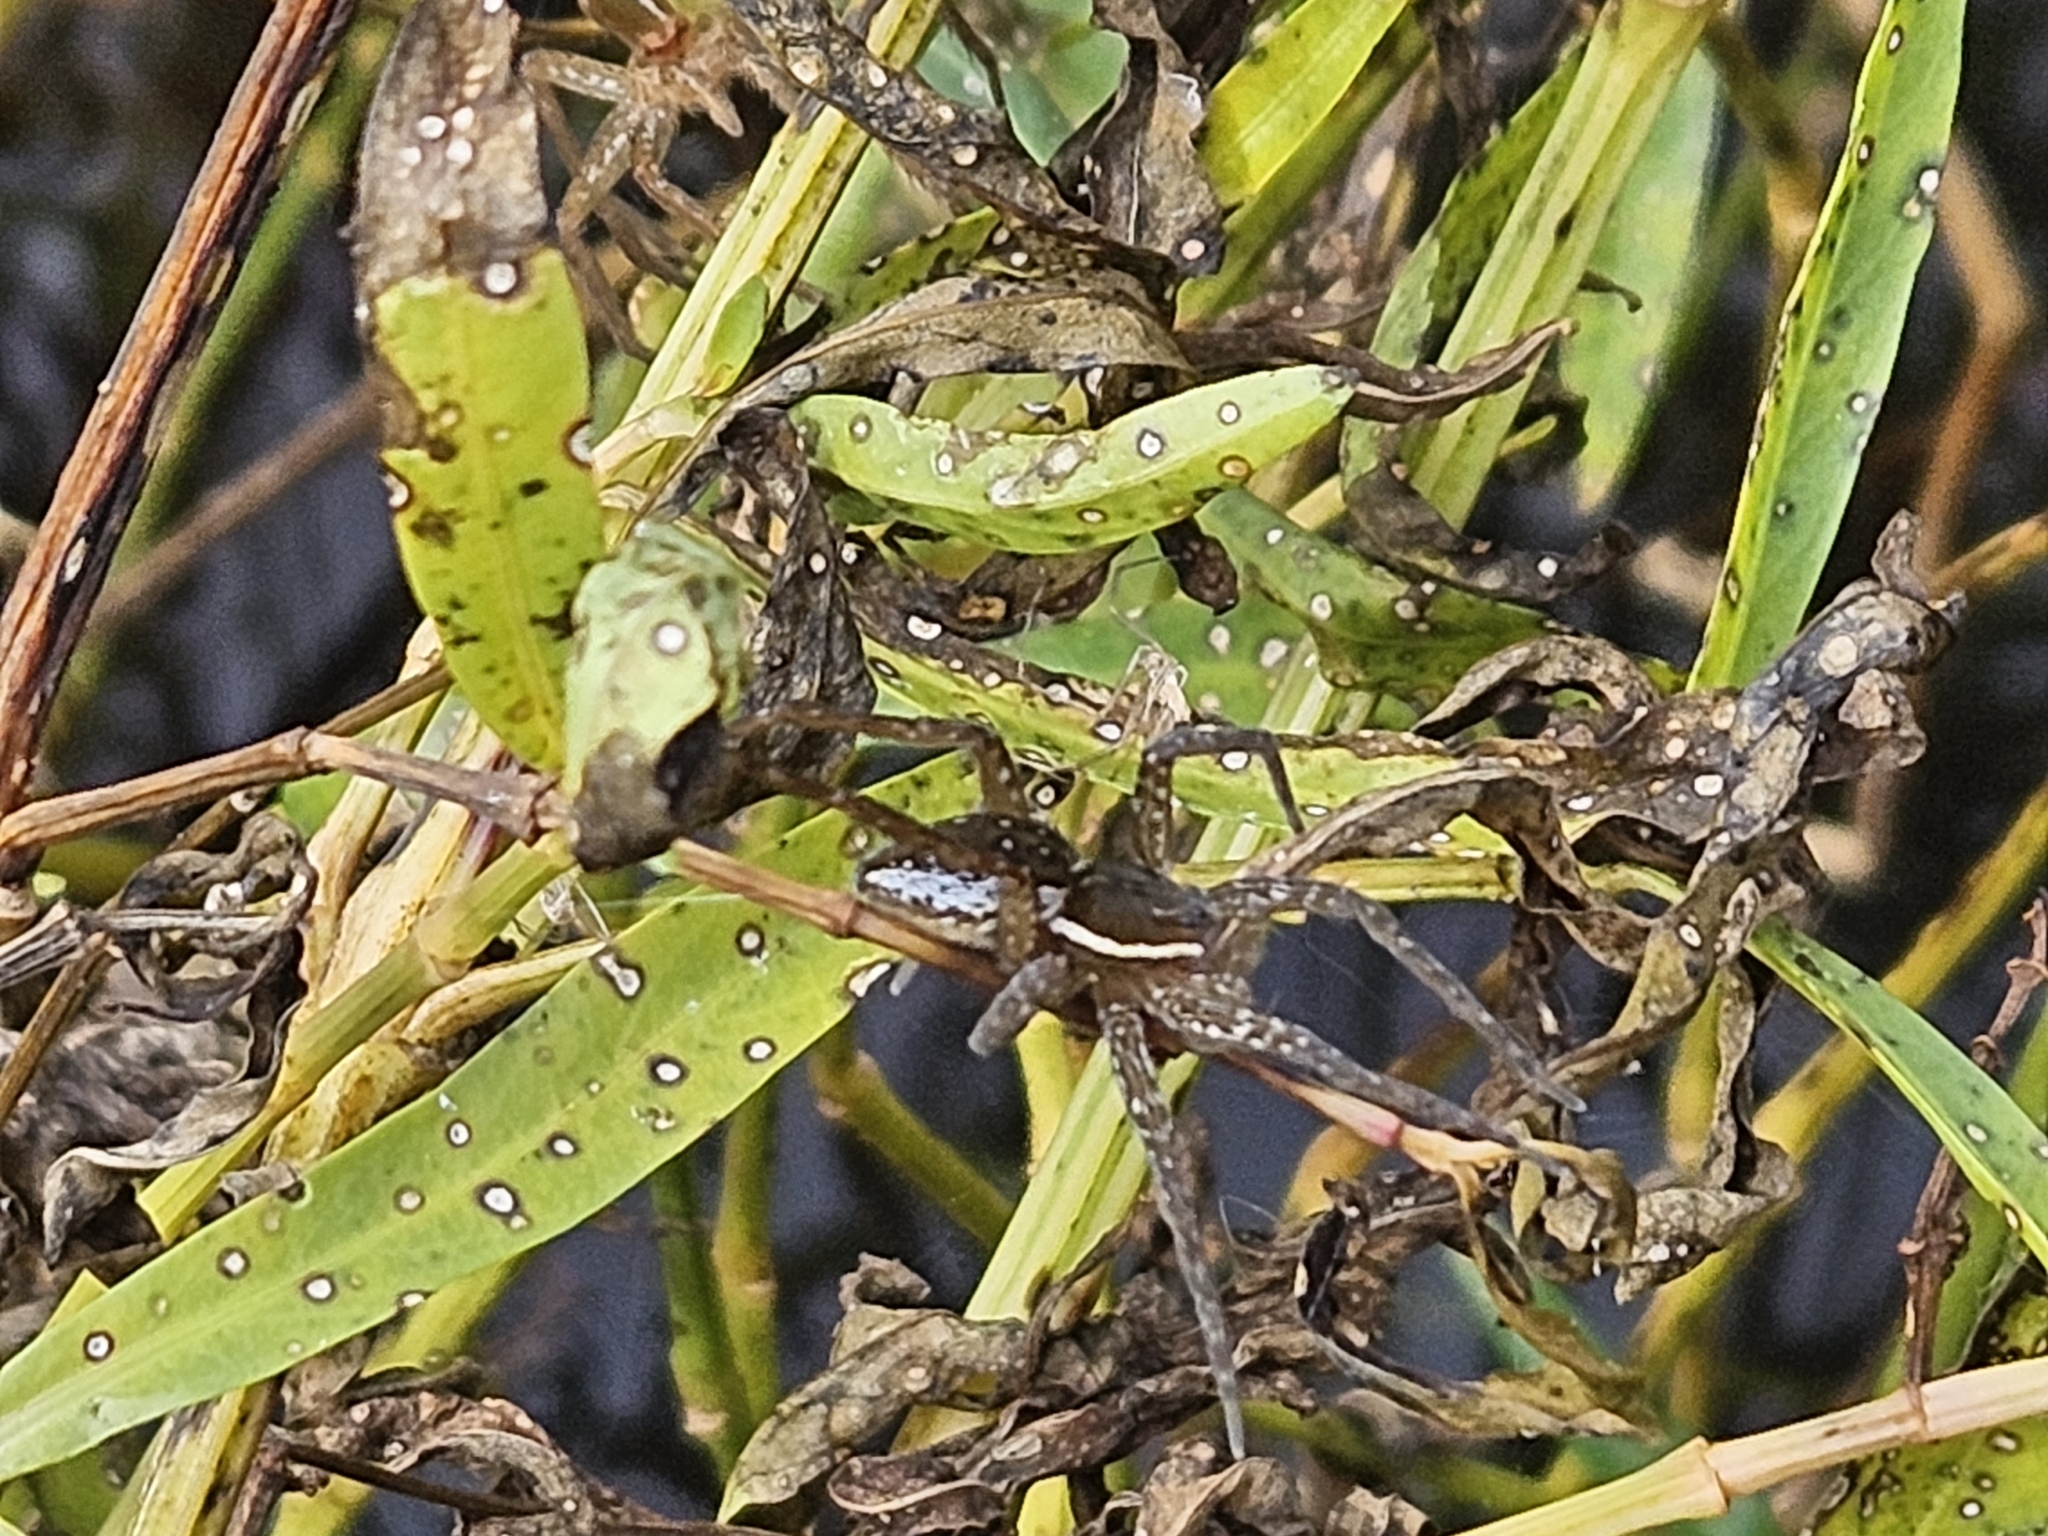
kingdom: Animalia
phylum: Arthropoda
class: Arachnida
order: Araneae
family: Pisauridae
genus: Dolomedes
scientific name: Dolomedes triton
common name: Six-spotted fishing spider
